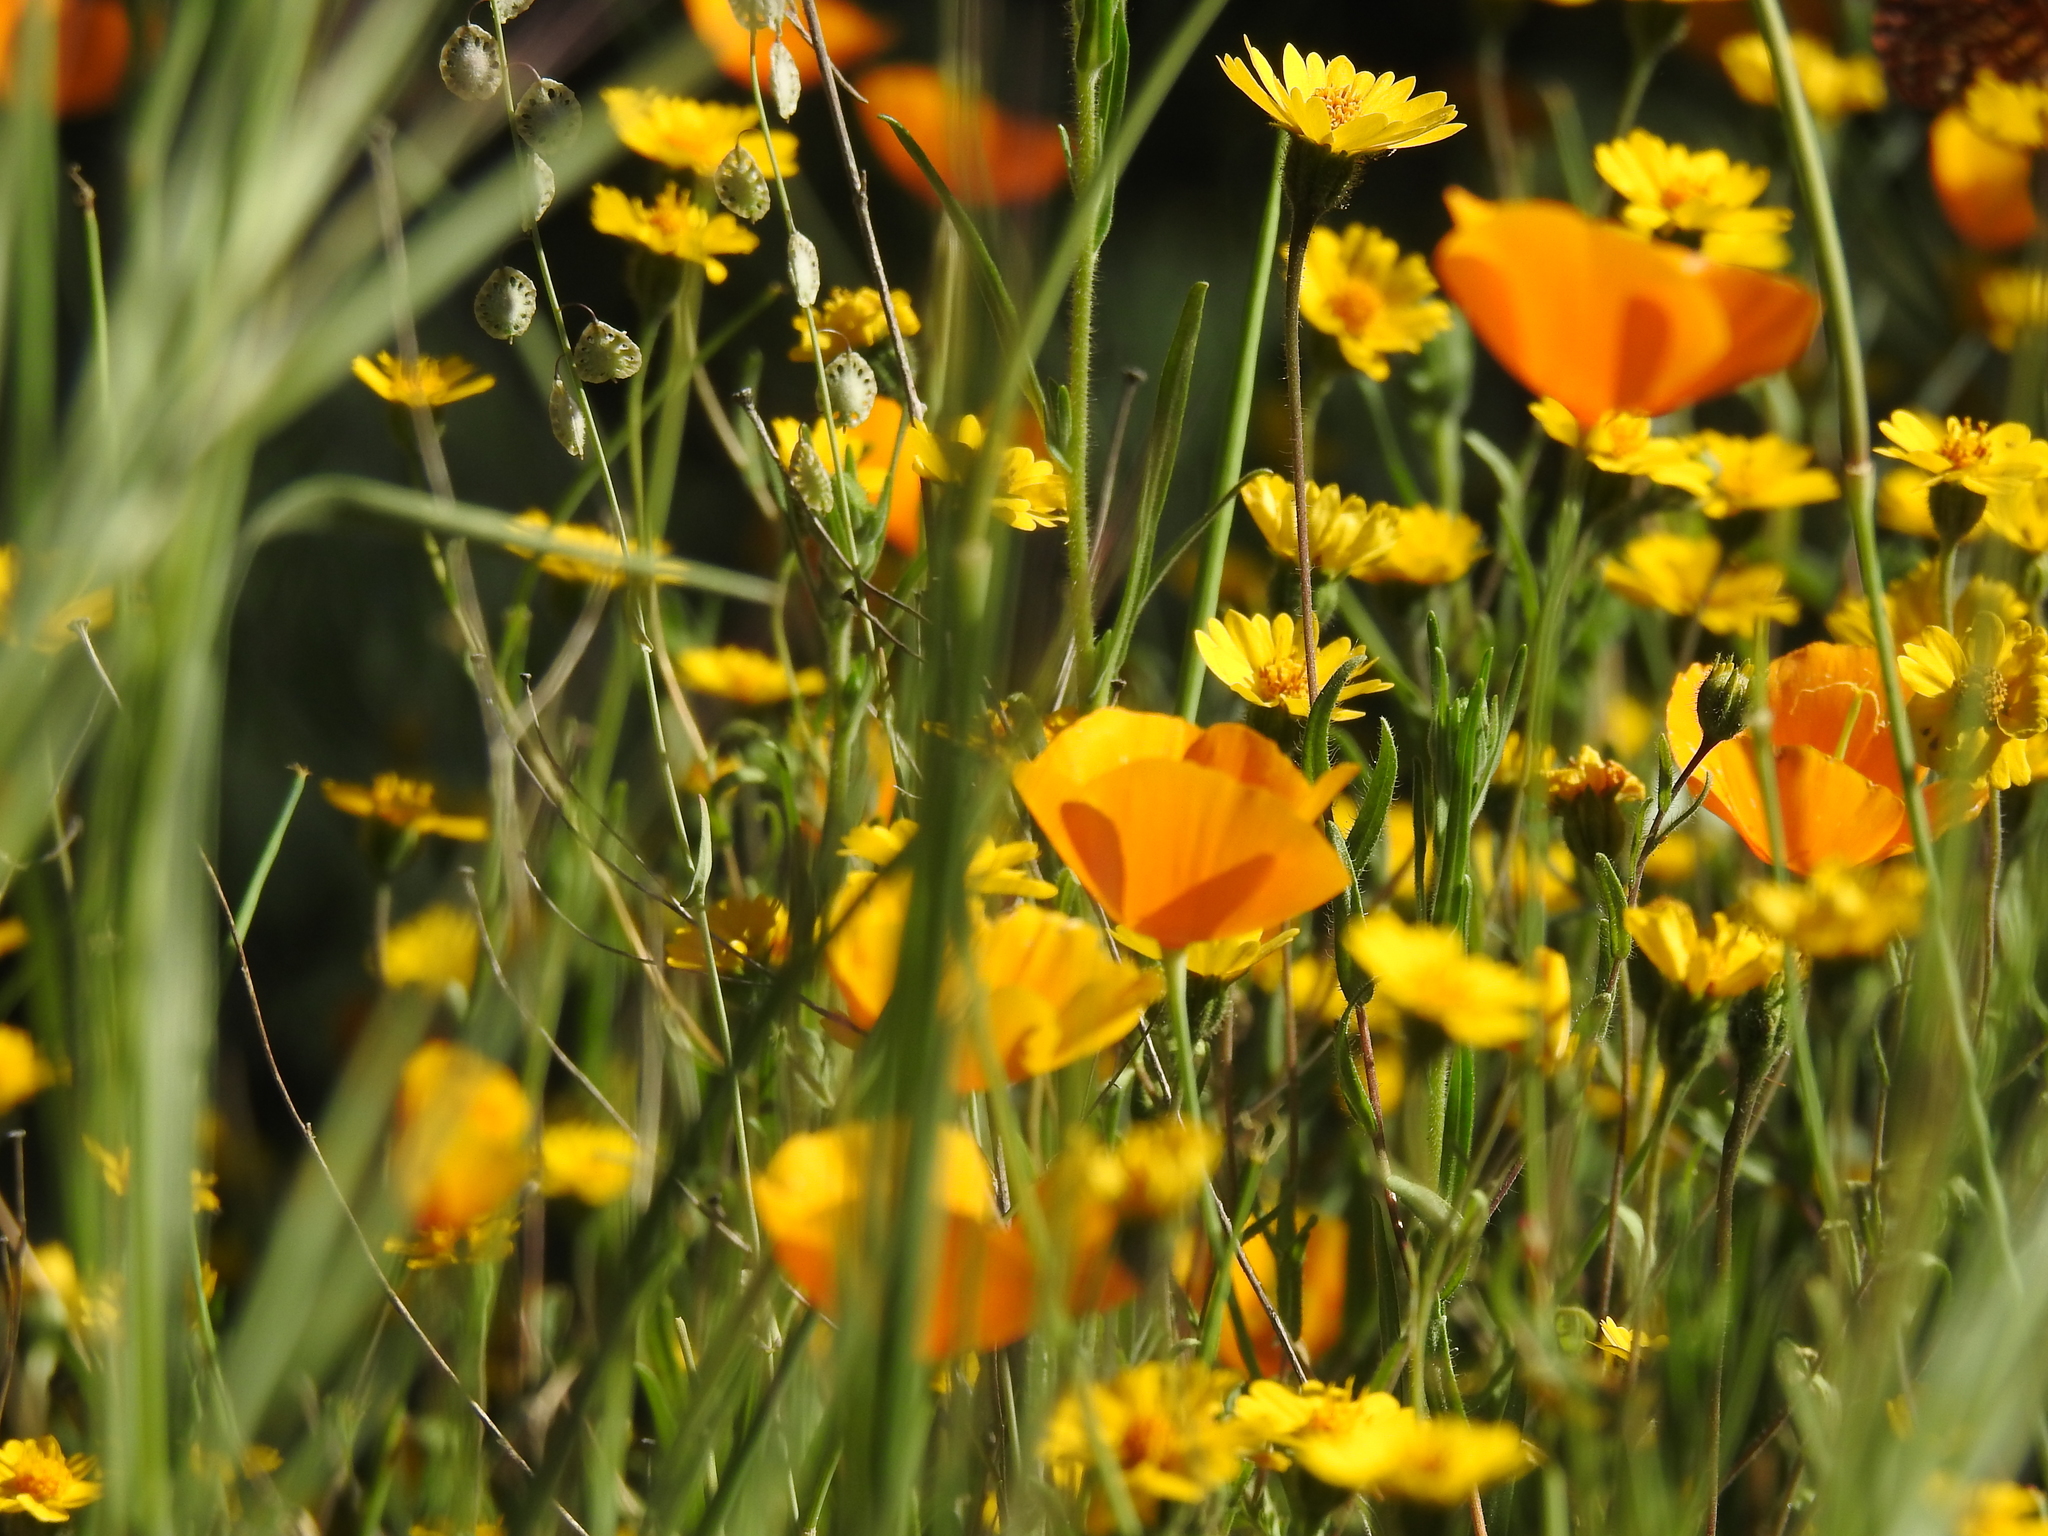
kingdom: Plantae
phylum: Tracheophyta
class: Magnoliopsida
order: Ranunculales
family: Papaveraceae
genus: Eschscholzia
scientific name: Eschscholzia caespitosa
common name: Tufted california-poppy
